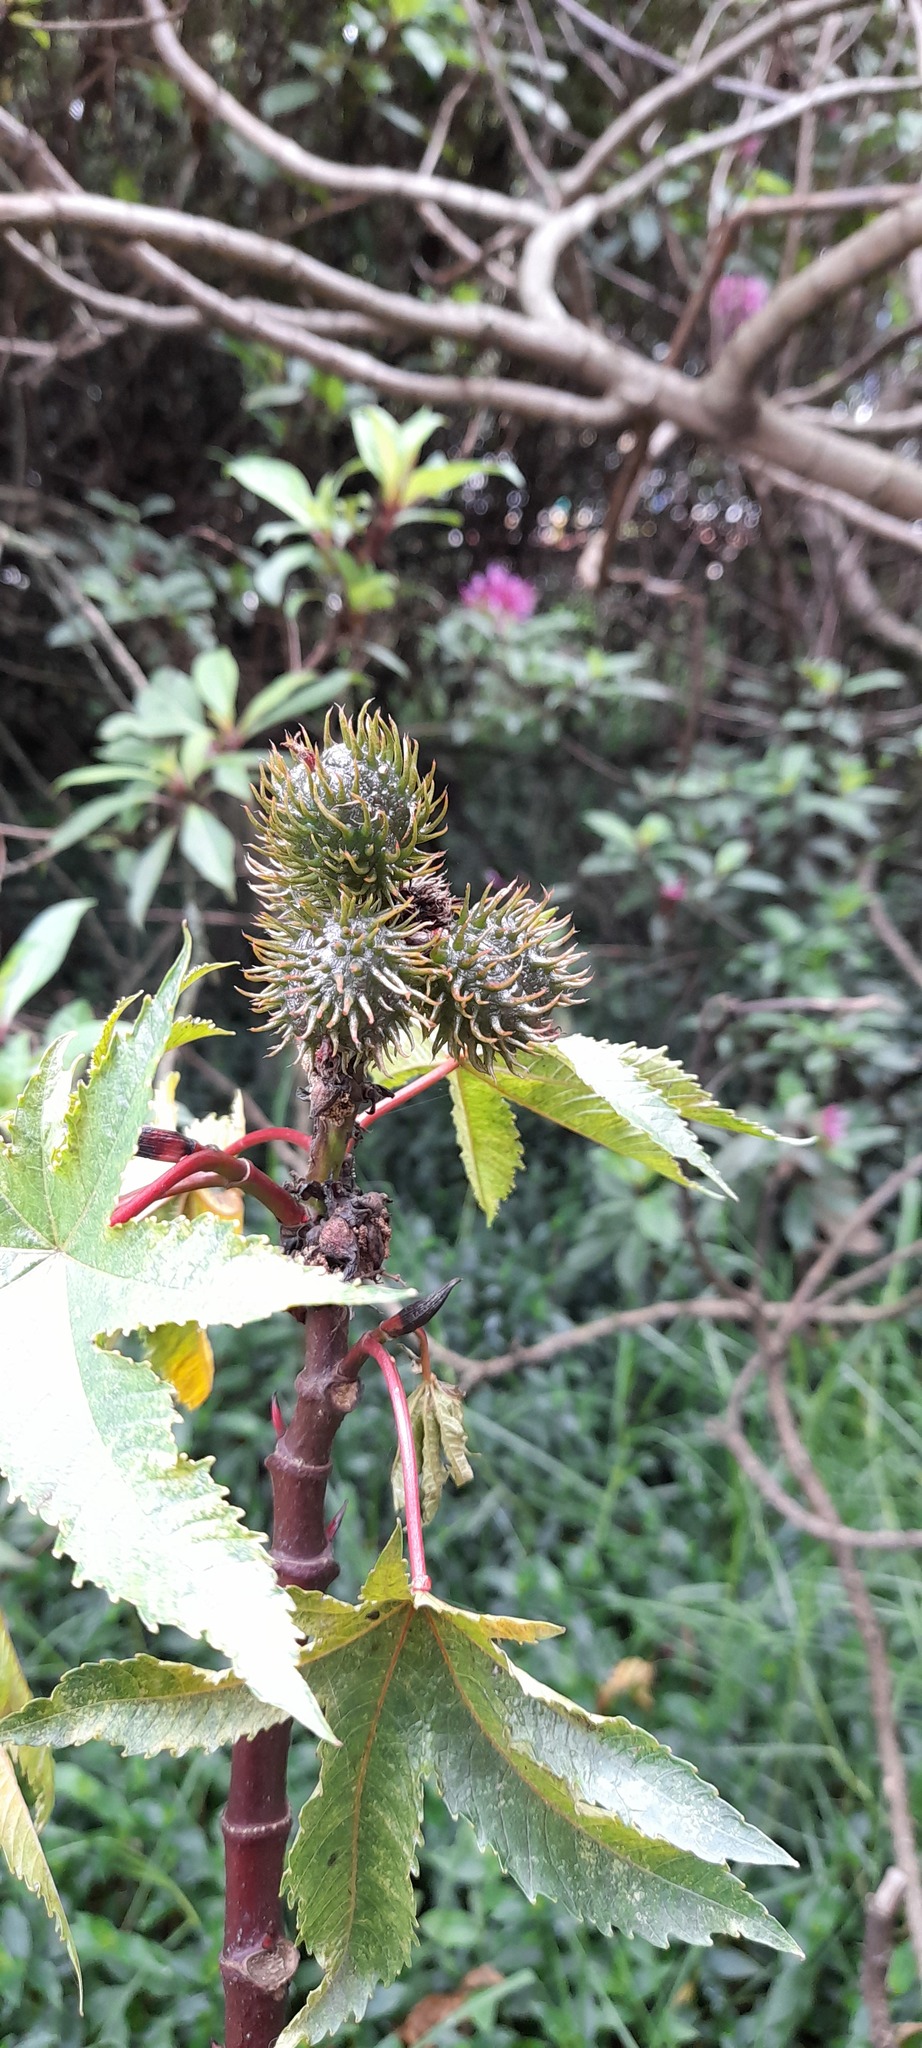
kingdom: Plantae
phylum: Tracheophyta
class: Magnoliopsida
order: Malpighiales
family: Euphorbiaceae
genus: Ricinus
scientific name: Ricinus communis
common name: Castor-oil-plant
